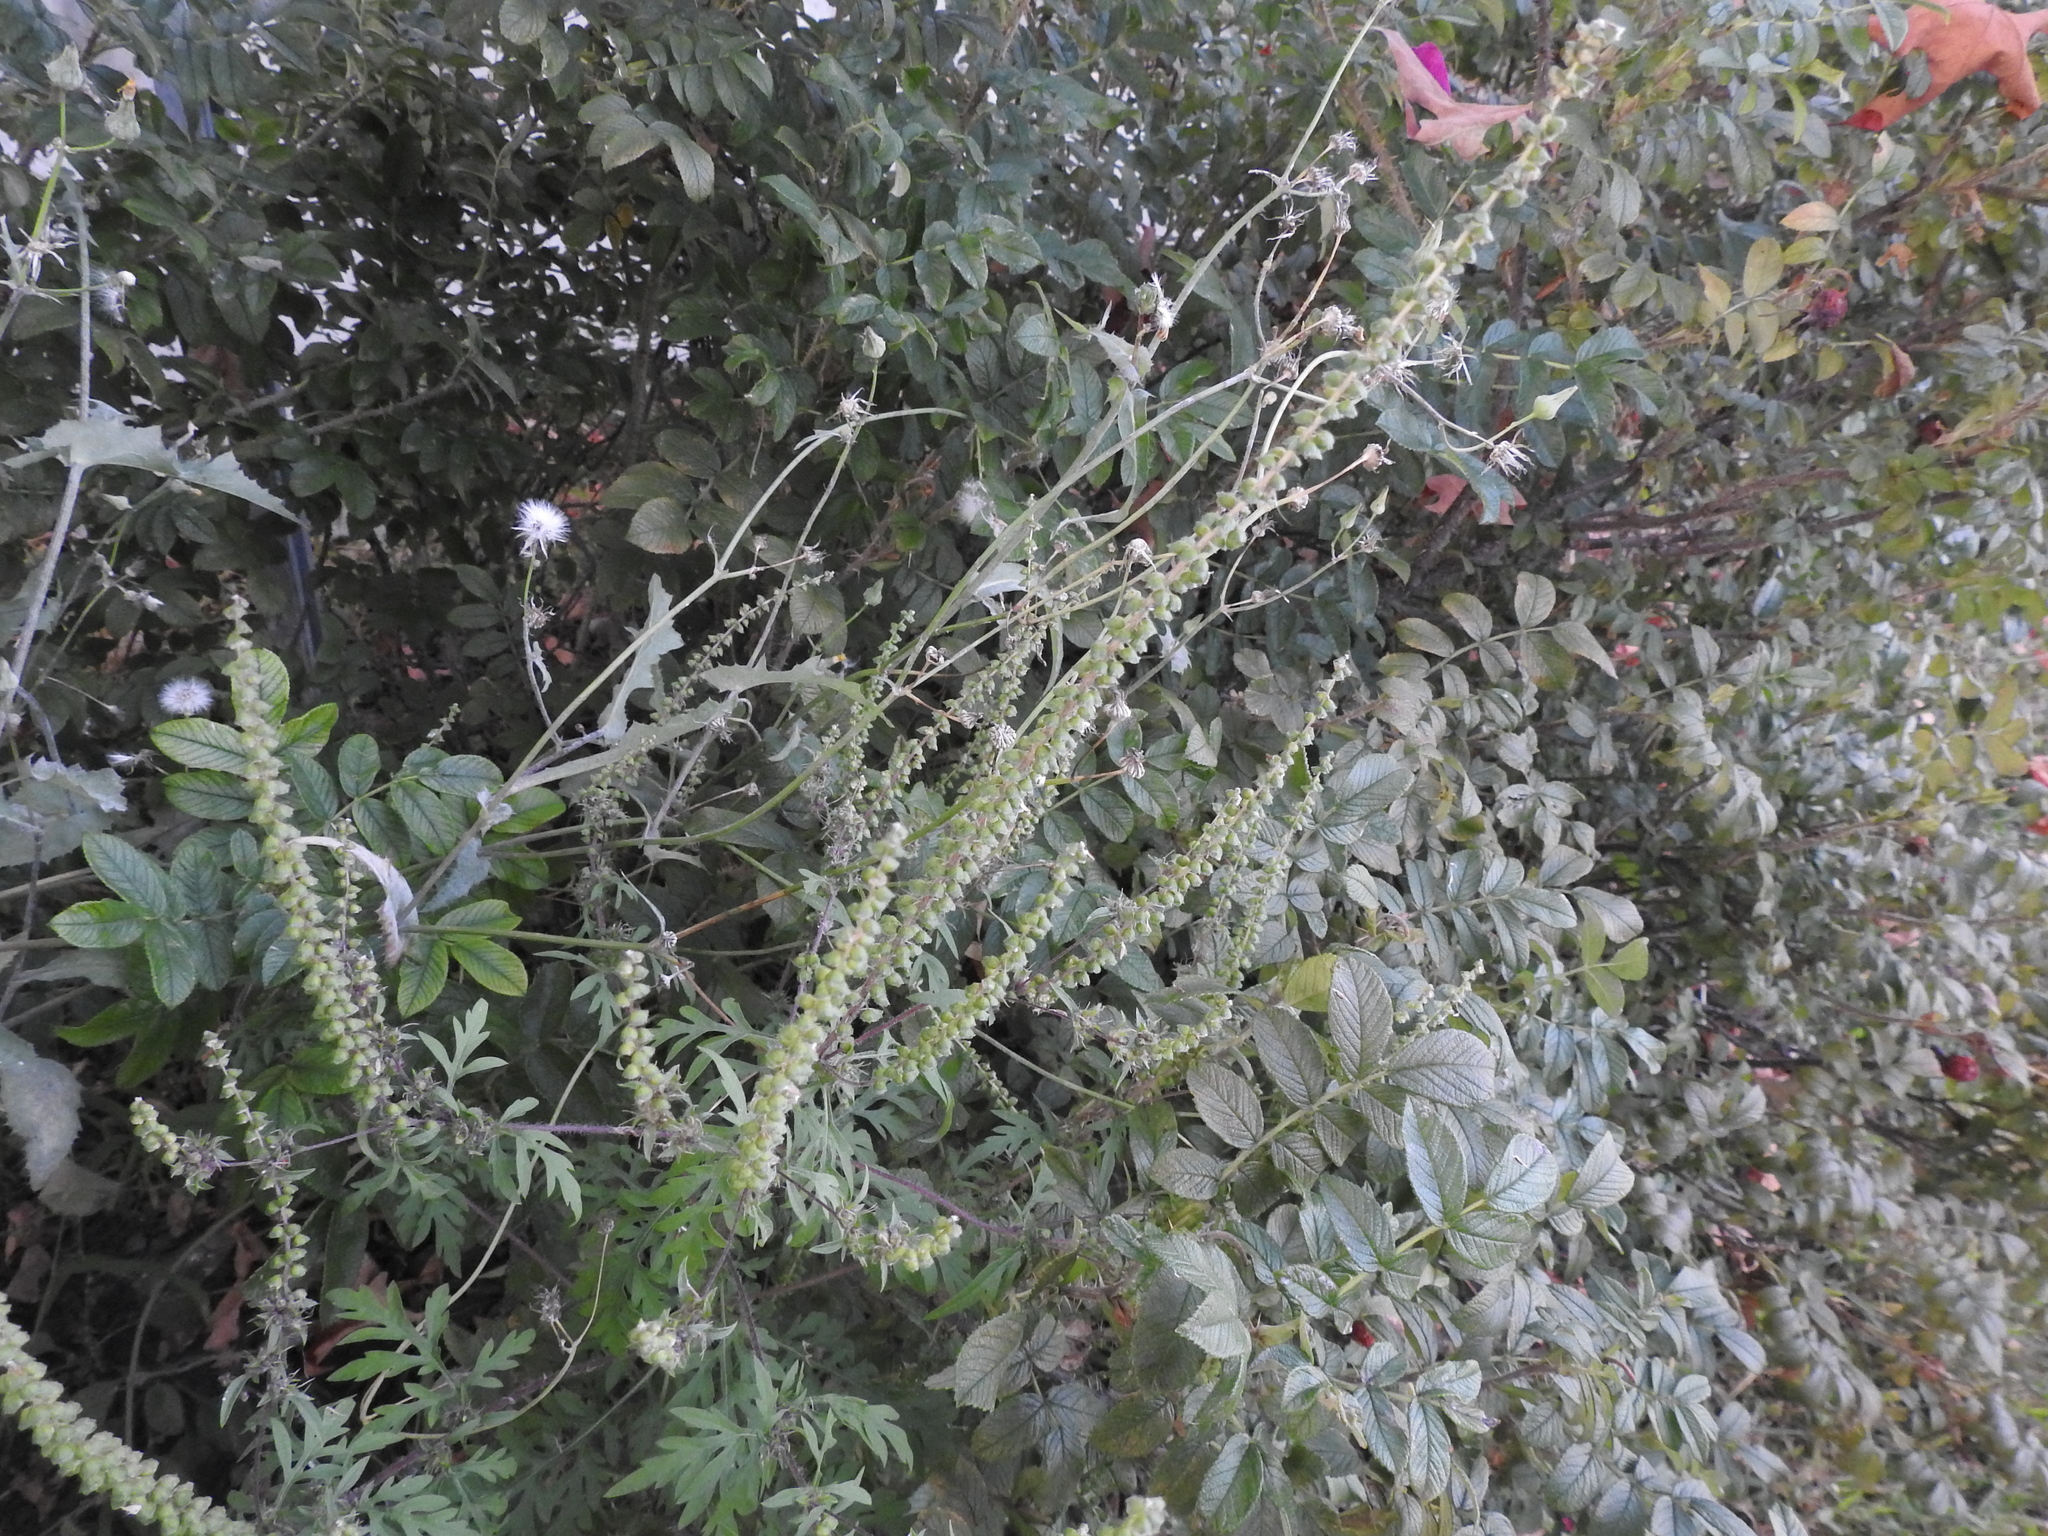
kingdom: Plantae
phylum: Tracheophyta
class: Magnoliopsida
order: Asterales
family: Asteraceae
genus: Ambrosia
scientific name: Ambrosia artemisiifolia
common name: Annual ragweed
